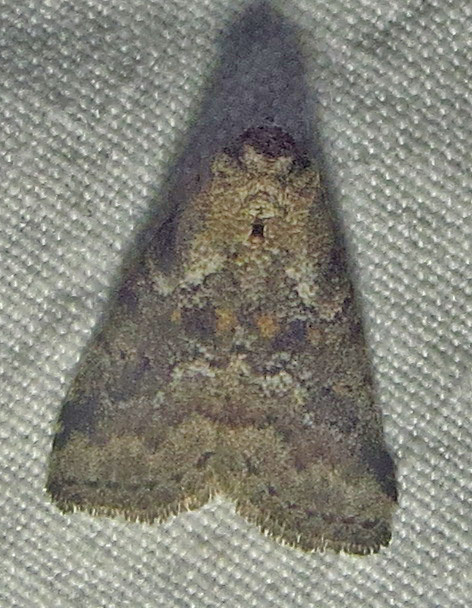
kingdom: Animalia
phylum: Arthropoda
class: Insecta
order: Lepidoptera
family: Erebidae
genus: Hyperstrotia
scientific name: Hyperstrotia nana
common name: White-lined graylet
